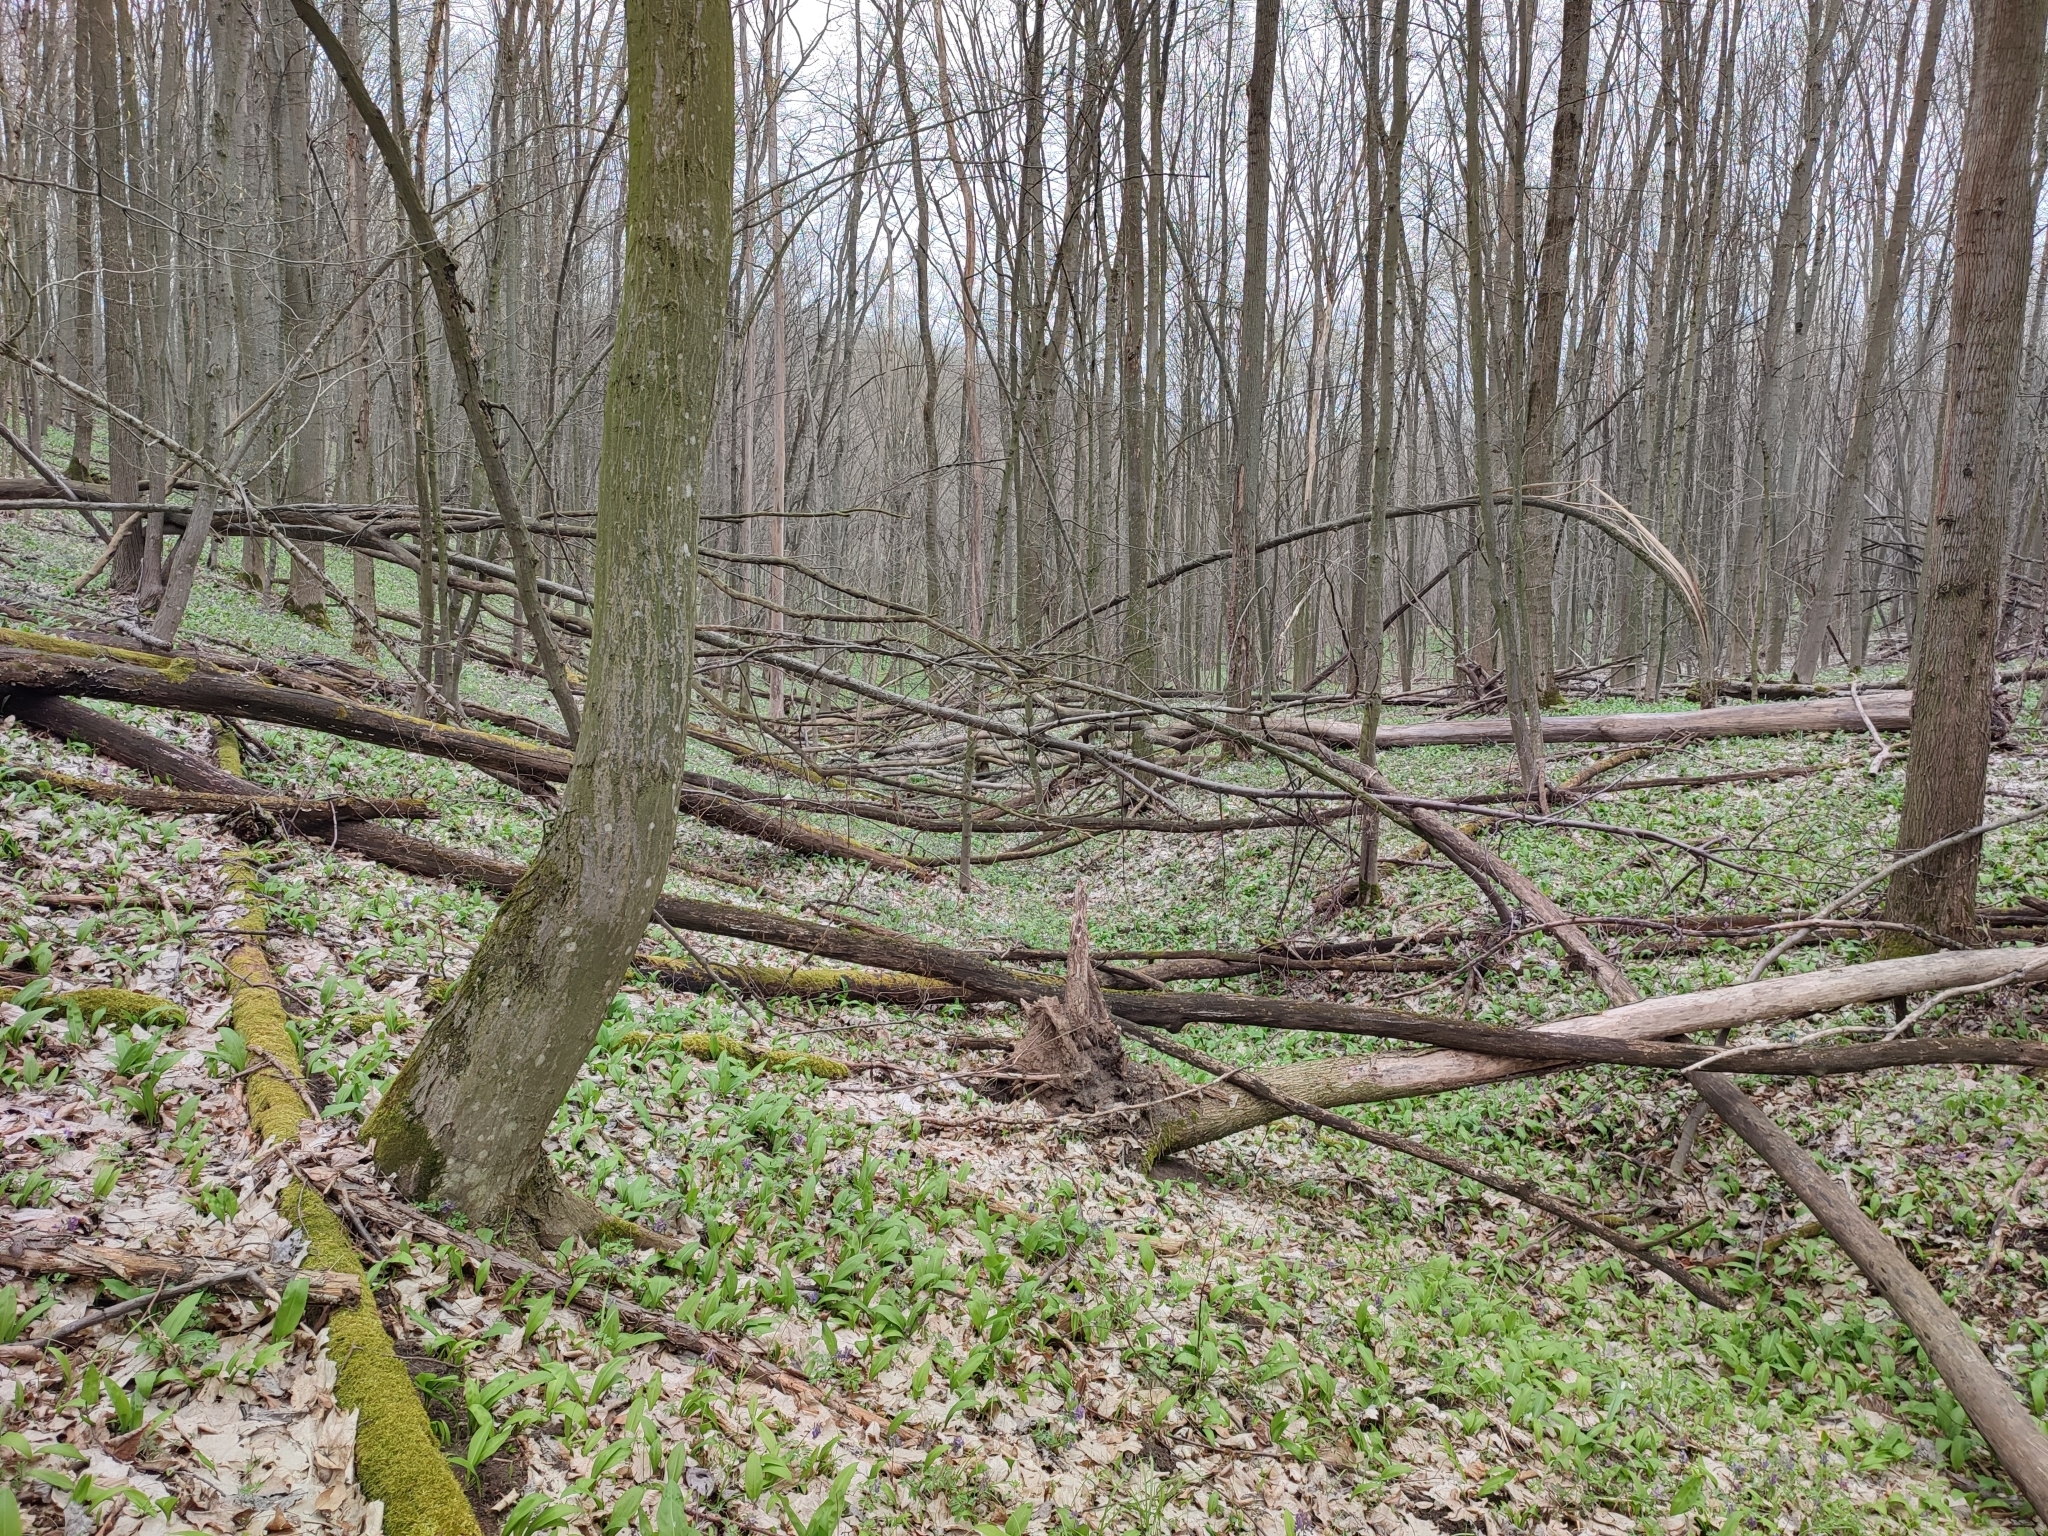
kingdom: Plantae
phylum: Tracheophyta
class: Magnoliopsida
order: Fagales
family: Betulaceae
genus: Carpinus
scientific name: Carpinus betulus
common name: Hornbeam
